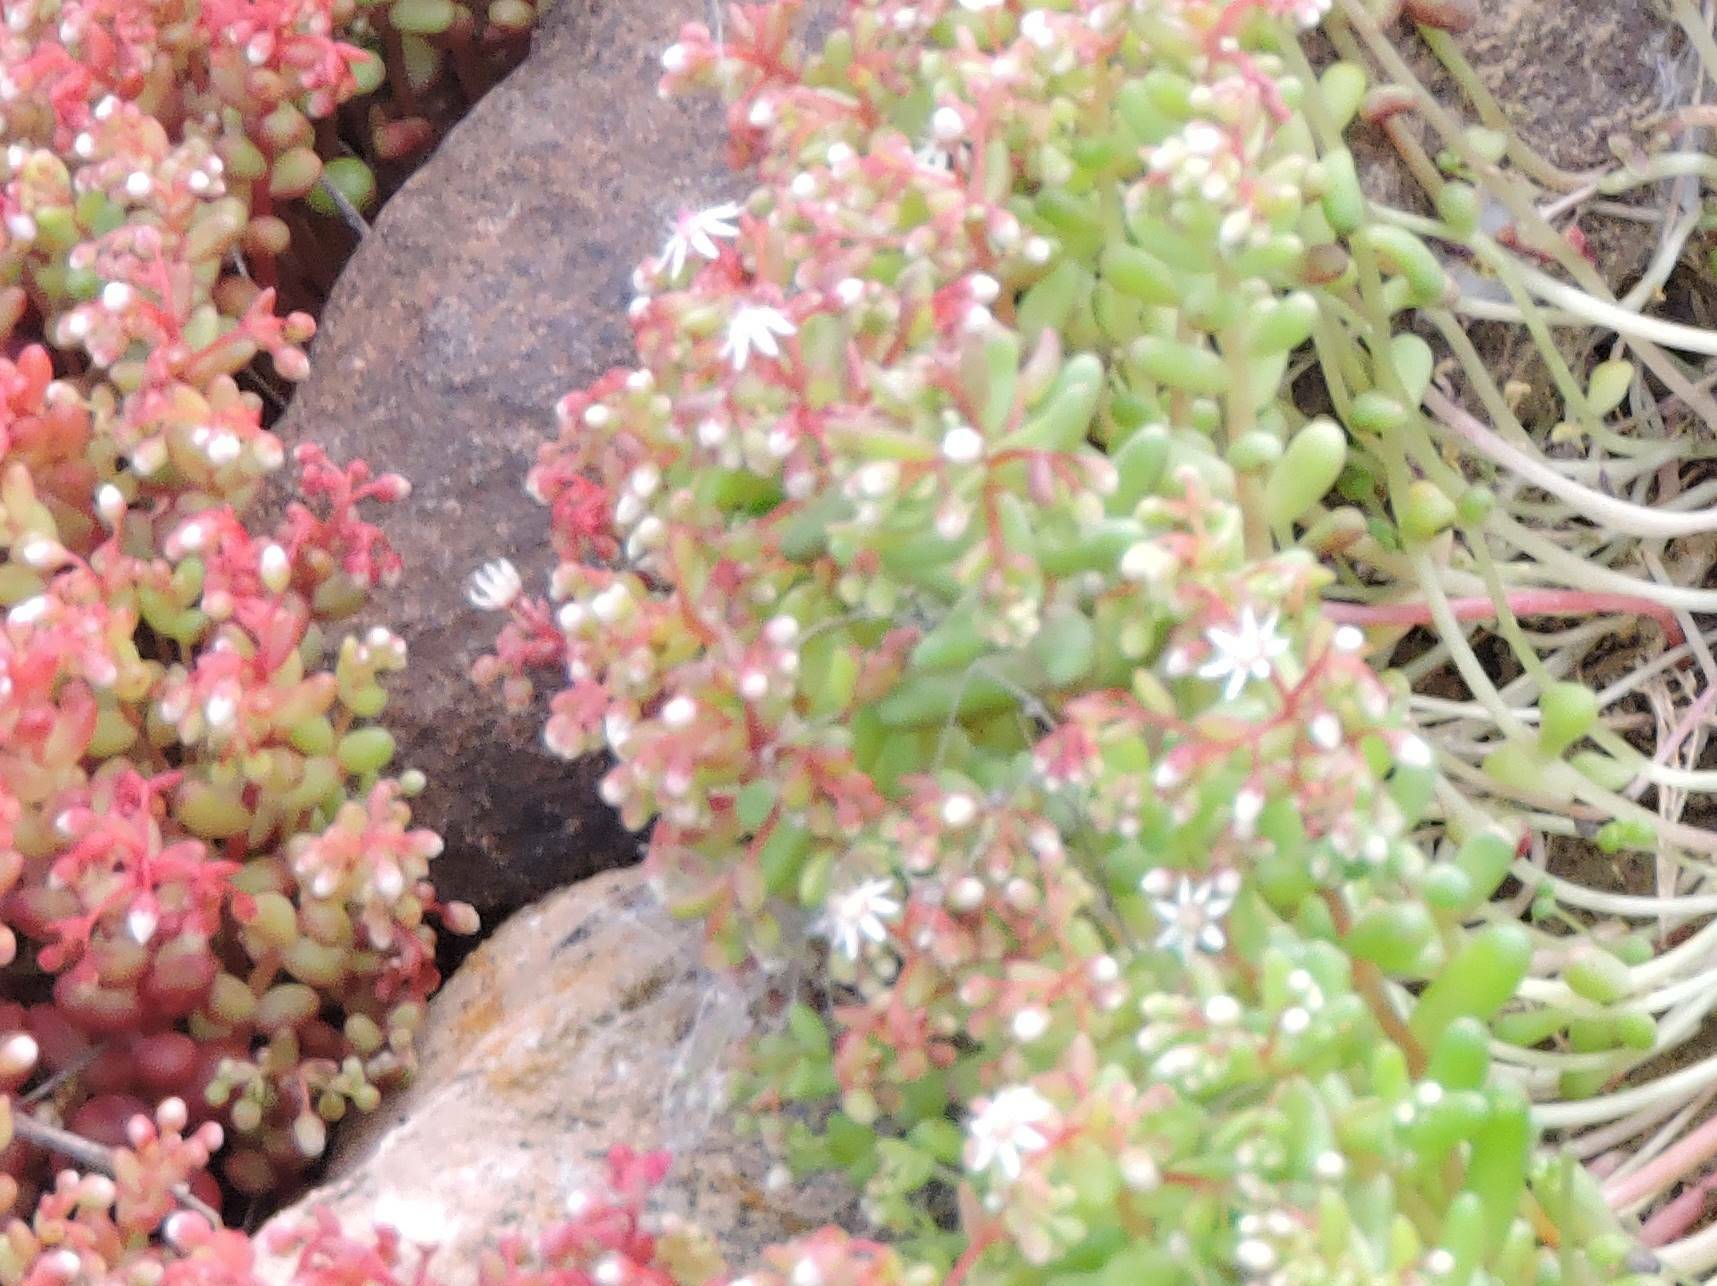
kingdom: Plantae
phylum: Tracheophyta
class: Magnoliopsida
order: Saxifragales
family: Crassulaceae
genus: Sedum
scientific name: Sedum caeruleum
